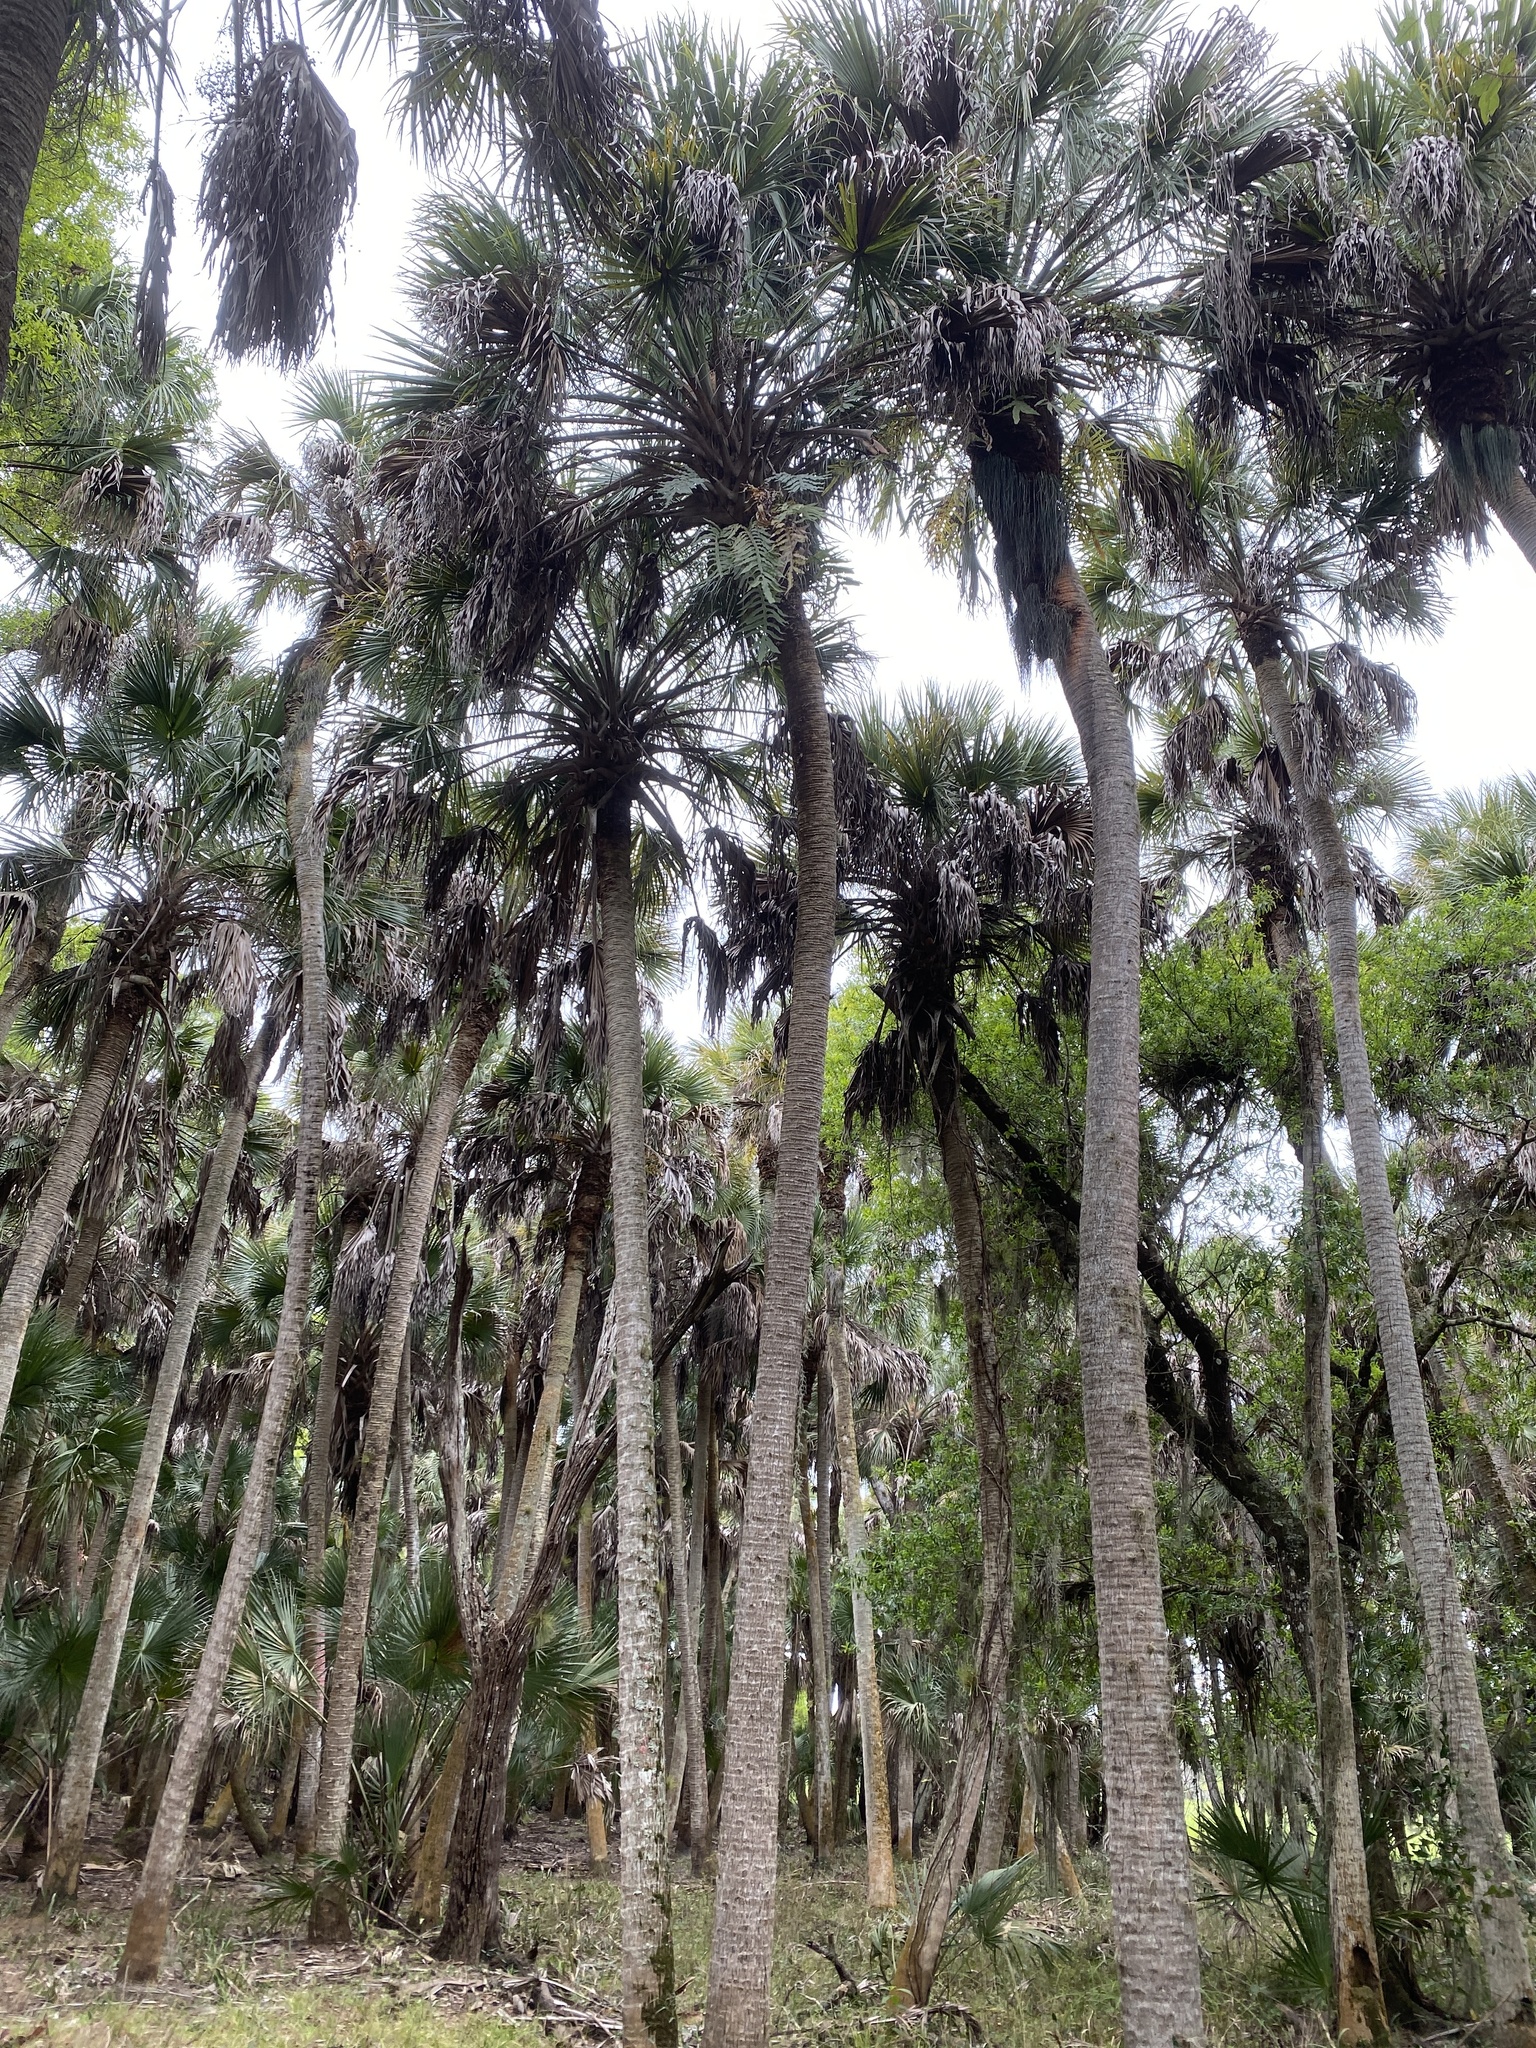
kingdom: Plantae
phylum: Tracheophyta
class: Liliopsida
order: Arecales
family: Arecaceae
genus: Sabal
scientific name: Sabal palmetto
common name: Blue palmetto
